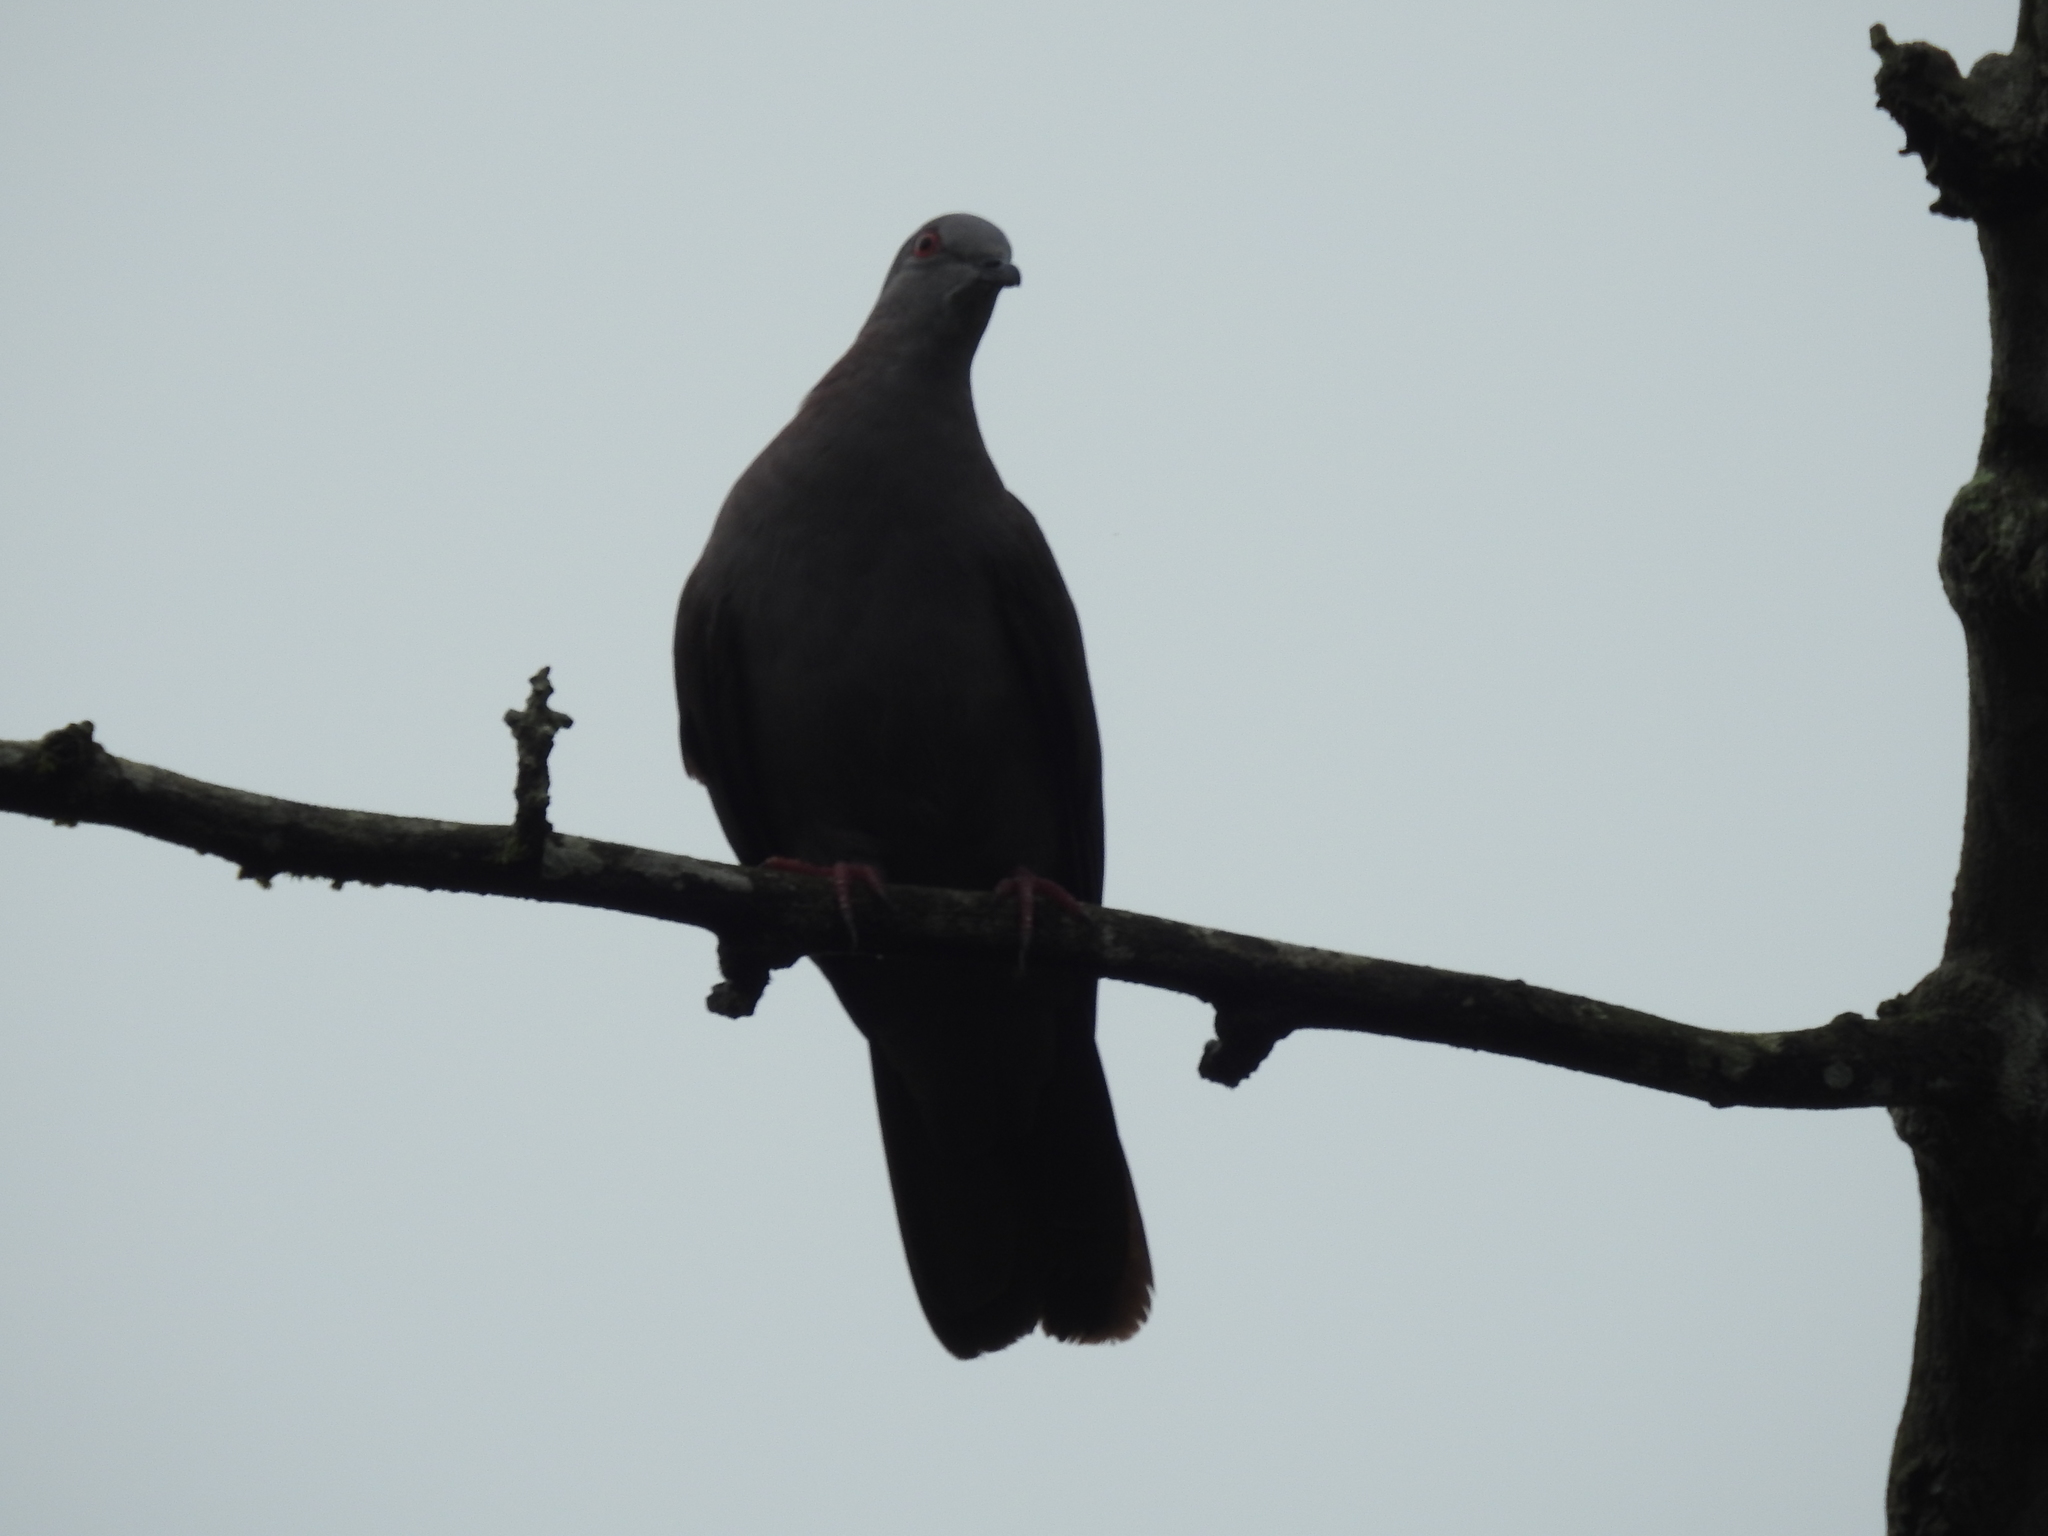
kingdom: Animalia
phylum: Chordata
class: Aves
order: Columbiformes
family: Columbidae
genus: Patagioenas
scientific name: Patagioenas goodsoni
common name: Dusky pigeon
